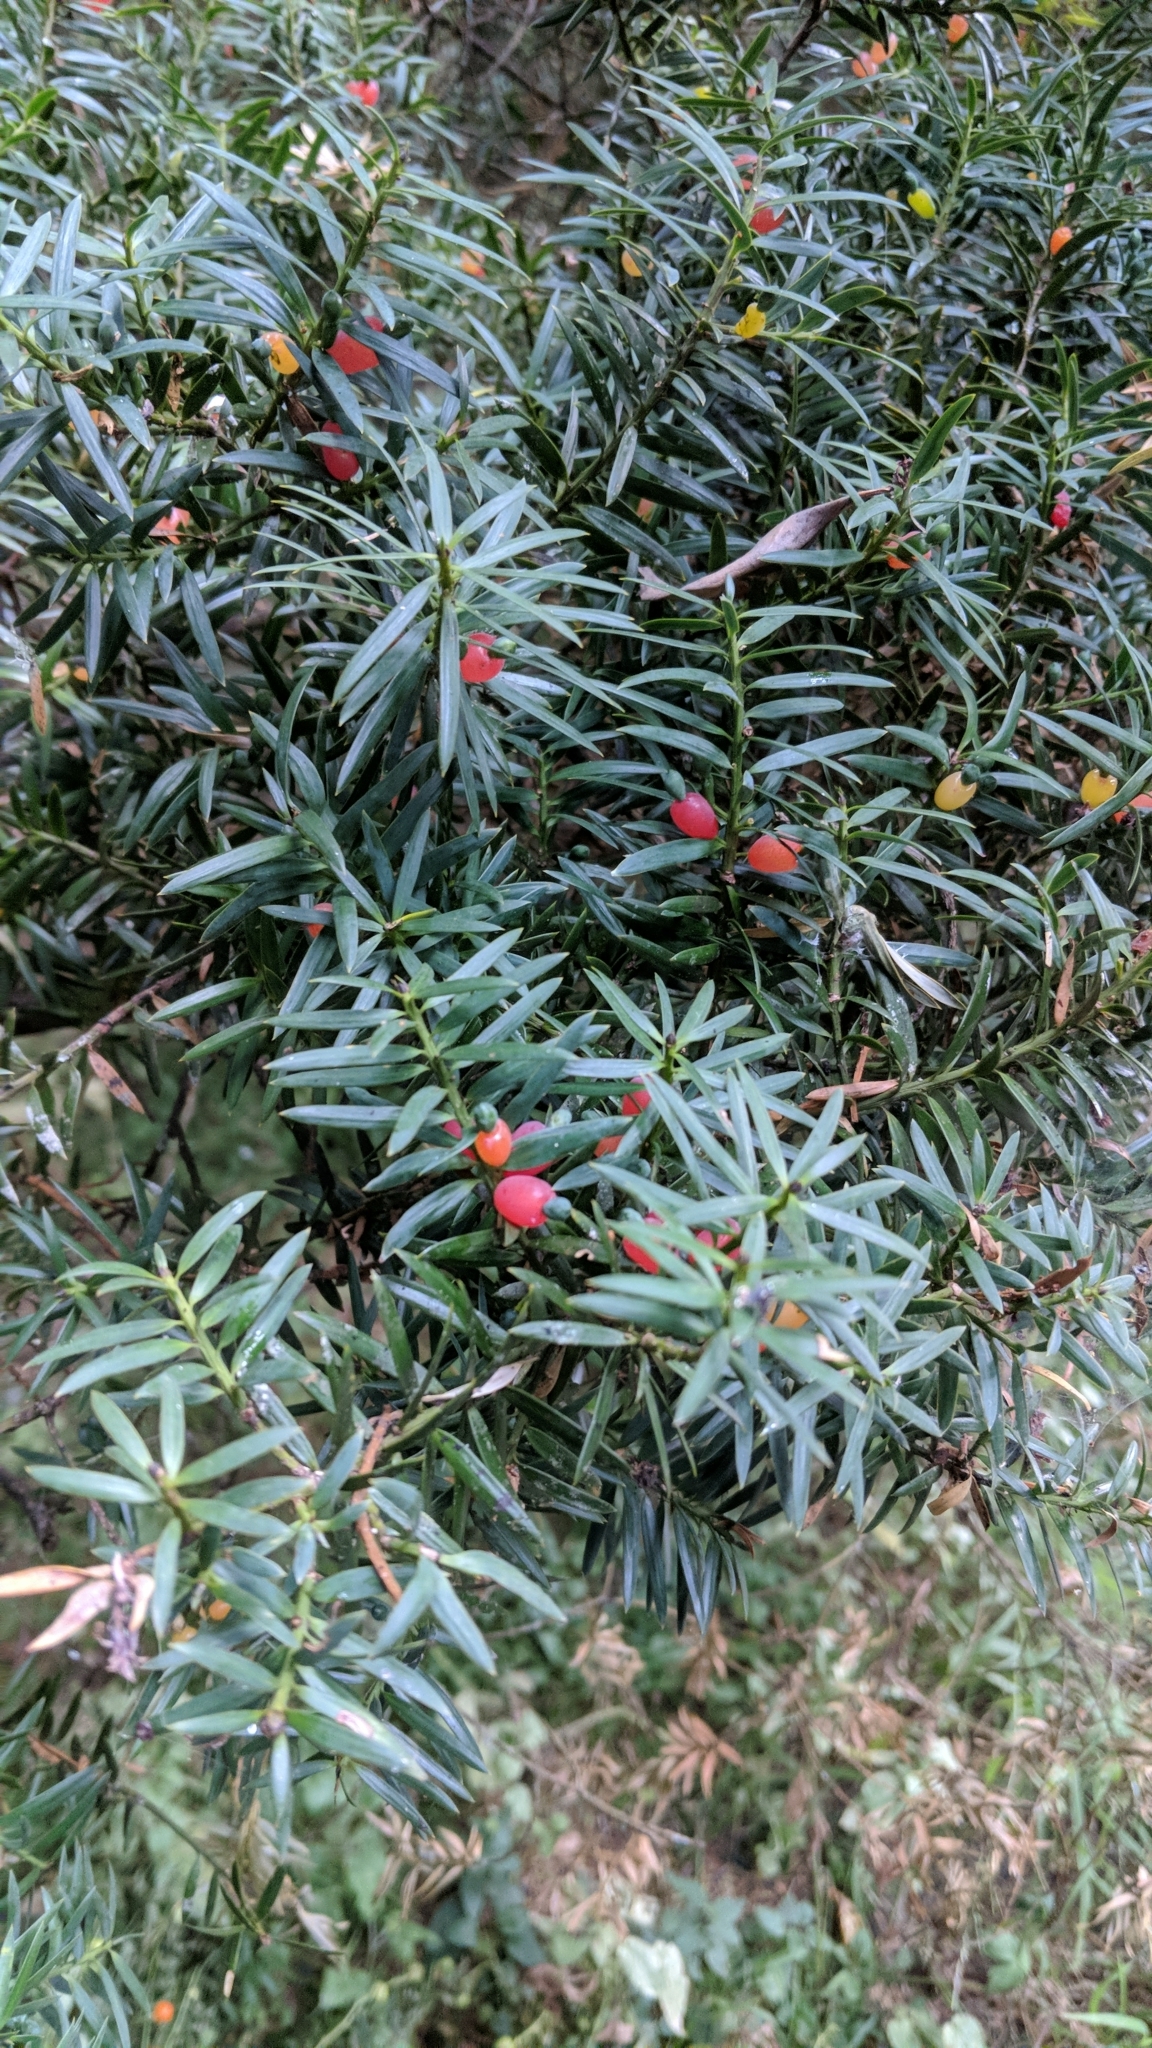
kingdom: Plantae
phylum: Tracheophyta
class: Pinopsida
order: Pinales
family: Podocarpaceae
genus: Podocarpus
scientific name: Podocarpus totara
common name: Totara
